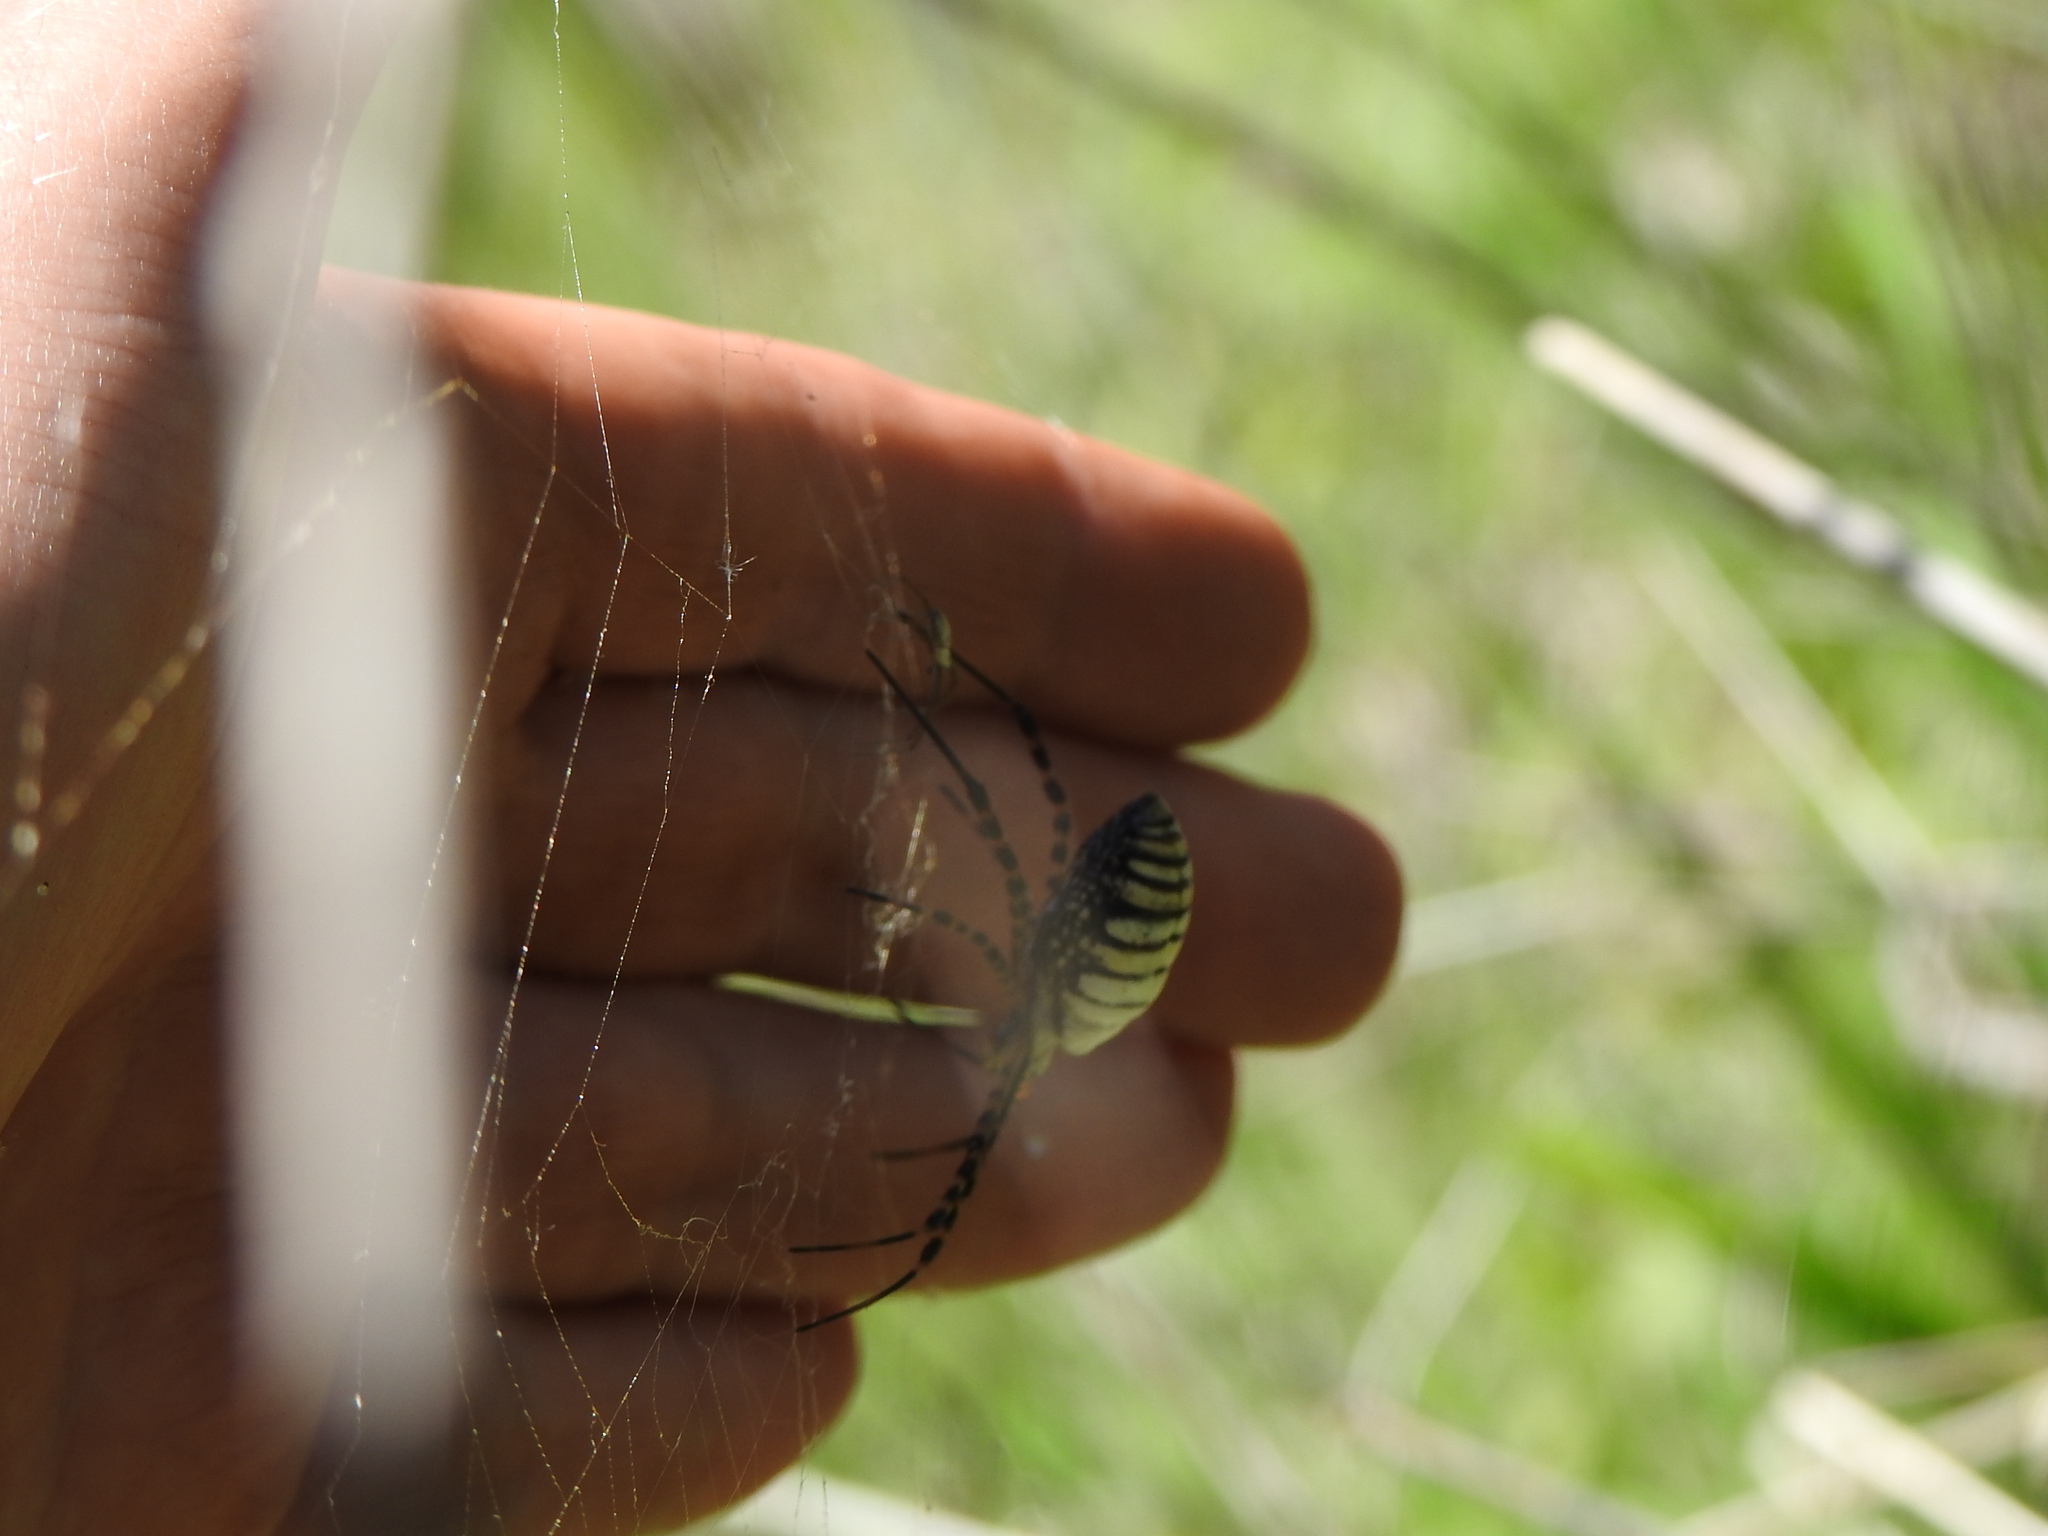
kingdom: Animalia
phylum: Arthropoda
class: Arachnida
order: Araneae
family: Araneidae
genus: Argiope
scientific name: Argiope trifasciata
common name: Banded garden spider
